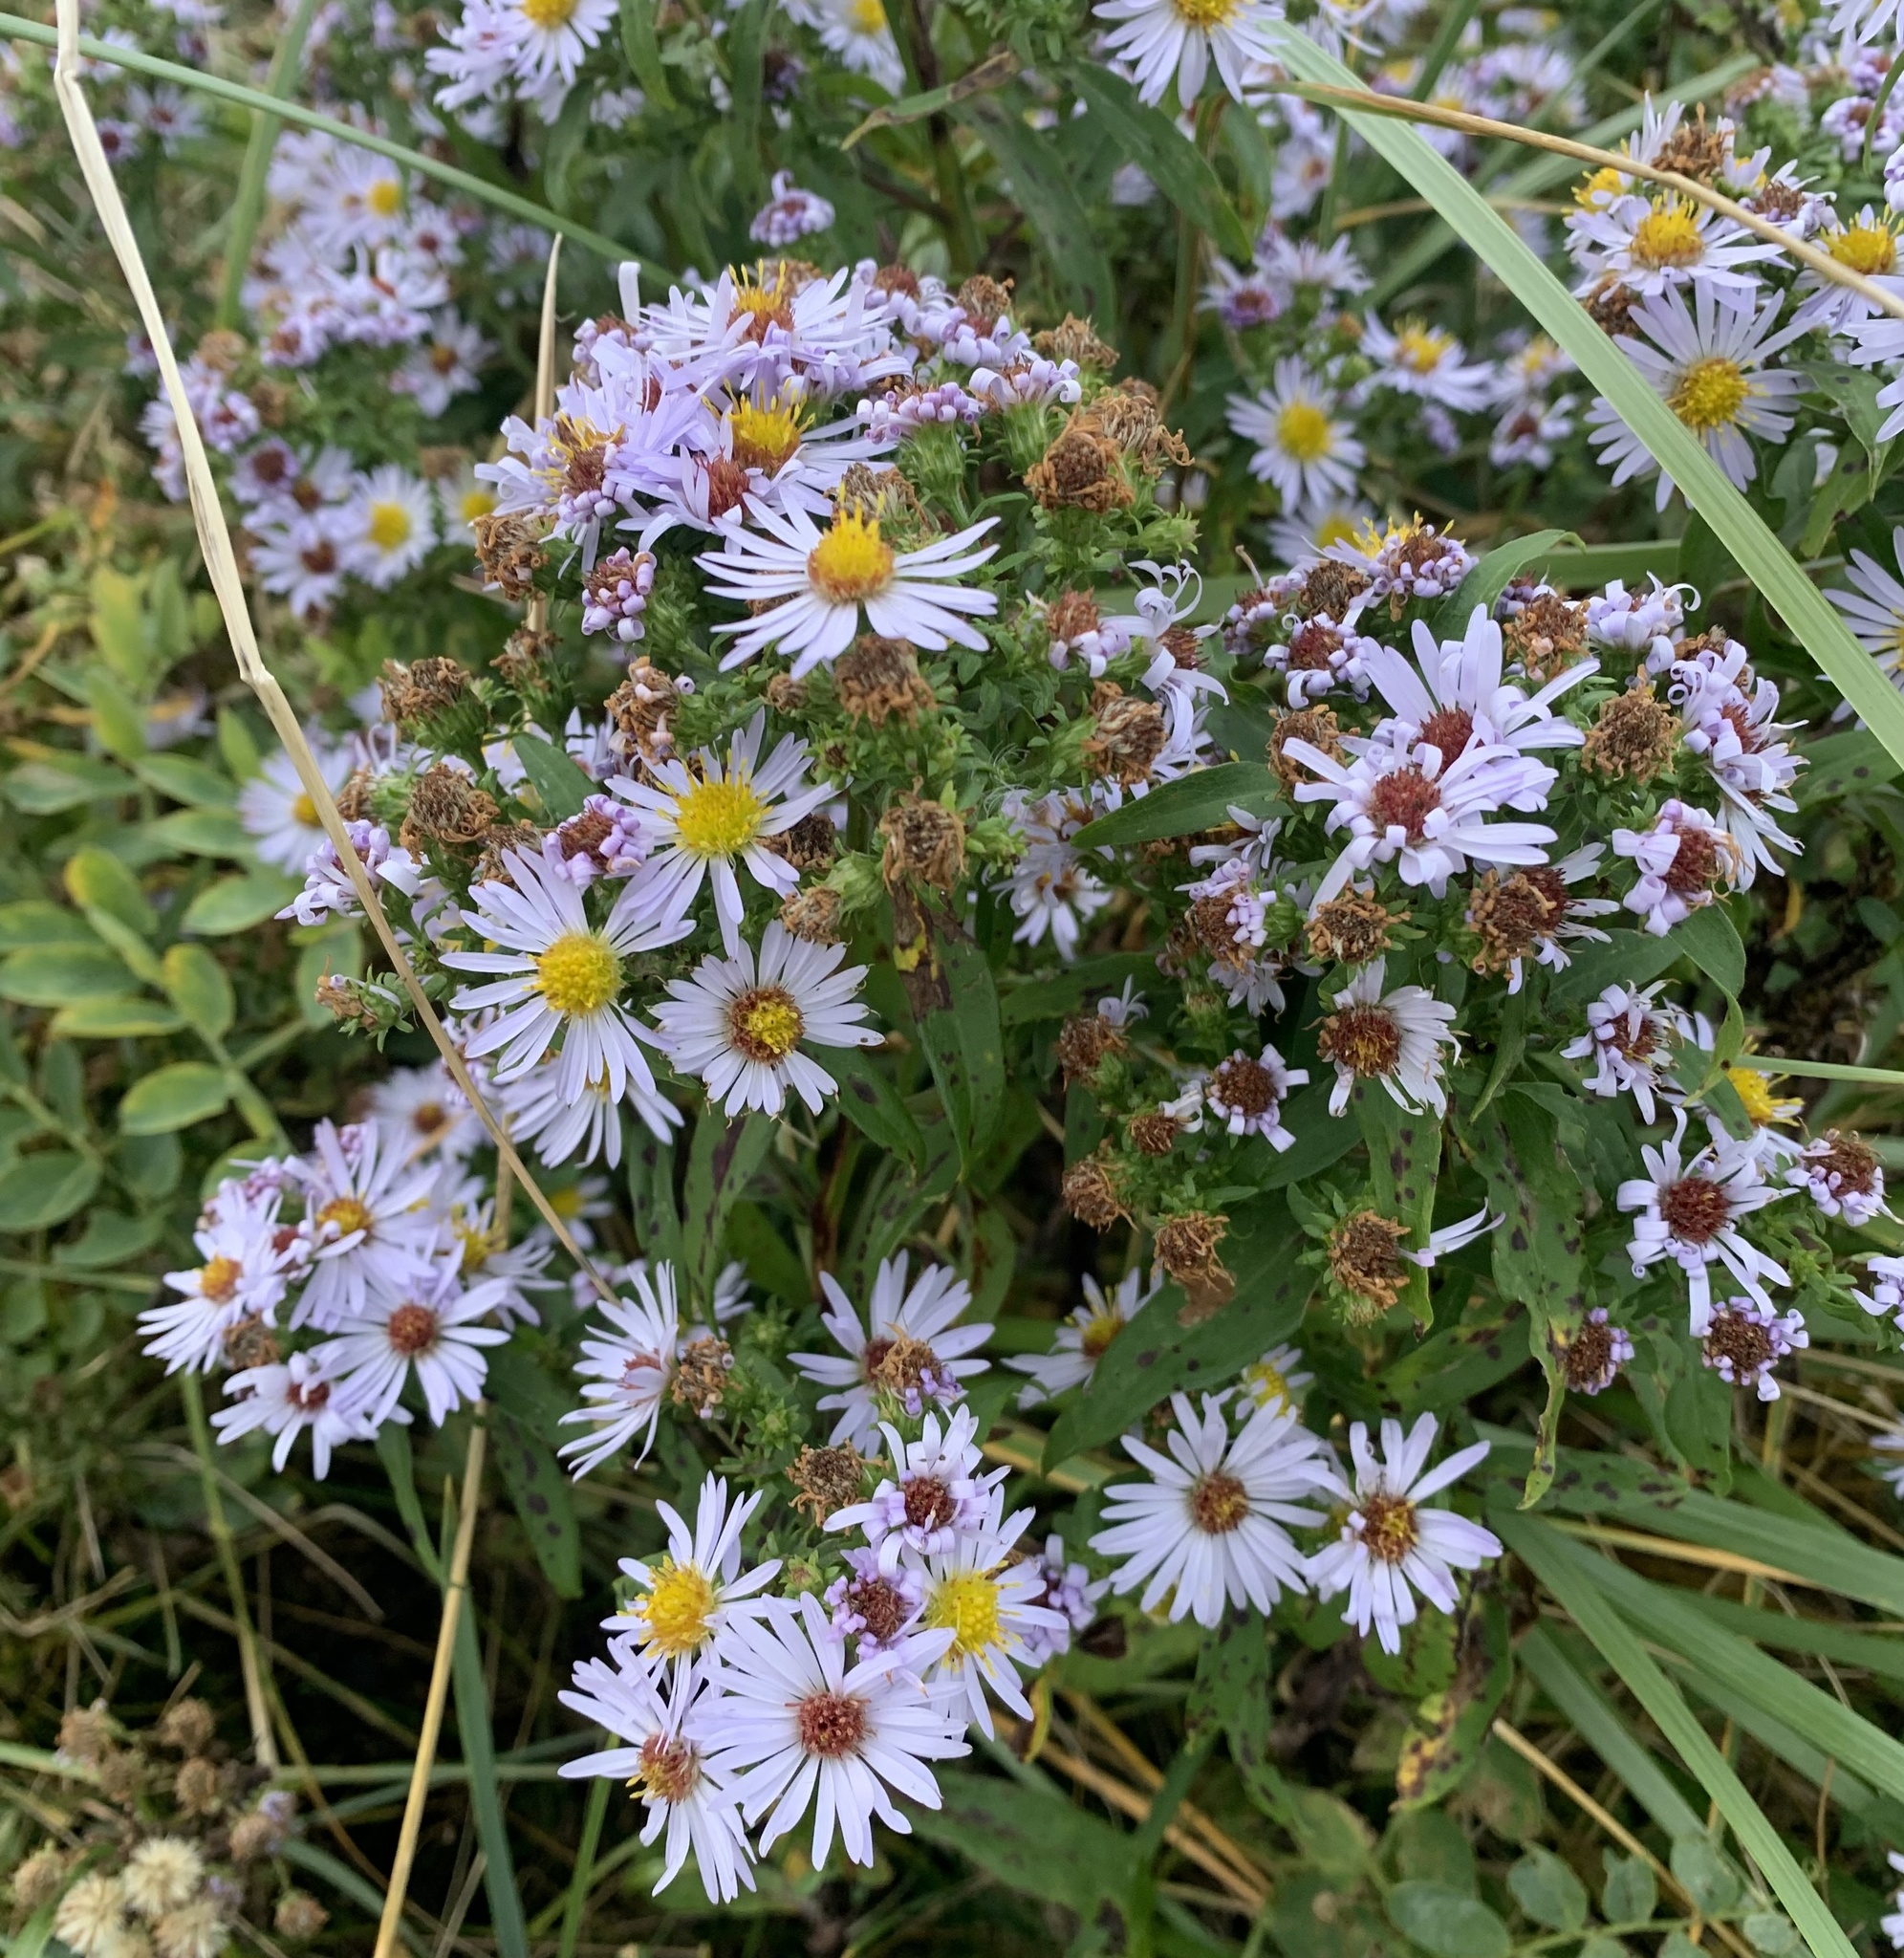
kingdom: Plantae
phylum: Tracheophyta
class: Magnoliopsida
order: Asterales
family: Asteraceae
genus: Symphyotrichum
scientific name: Symphyotrichum novi-belgii
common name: Michaelmas daisy
